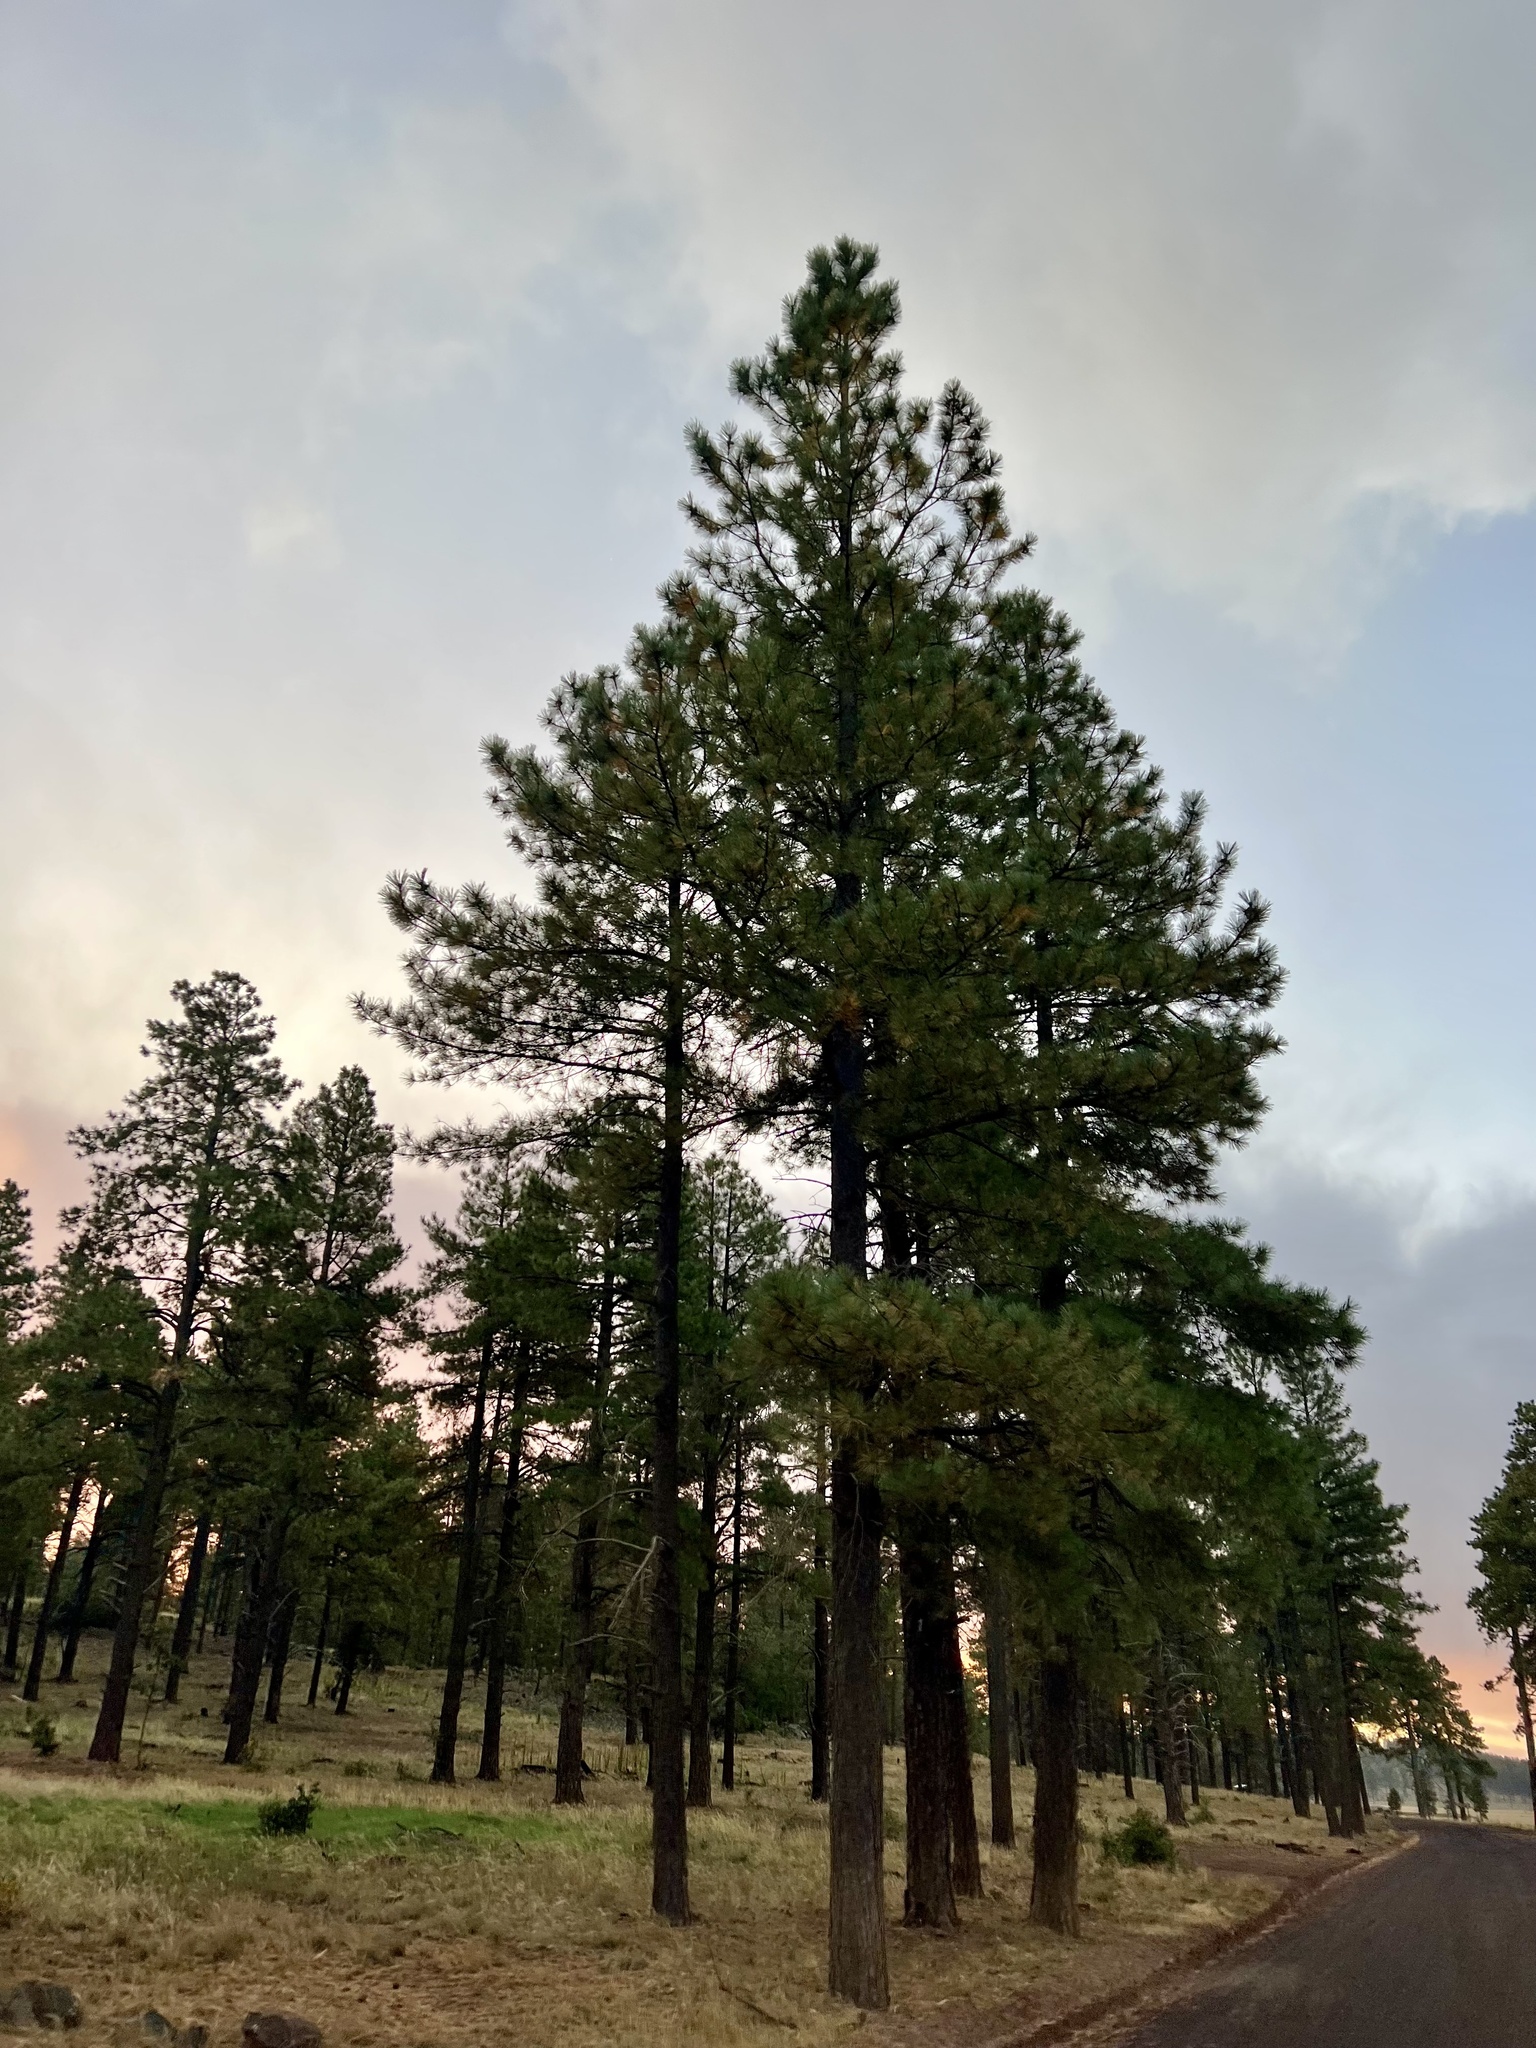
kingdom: Plantae
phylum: Tracheophyta
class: Pinopsida
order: Pinales
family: Pinaceae
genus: Pinus
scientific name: Pinus ponderosa
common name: Western yellow-pine
